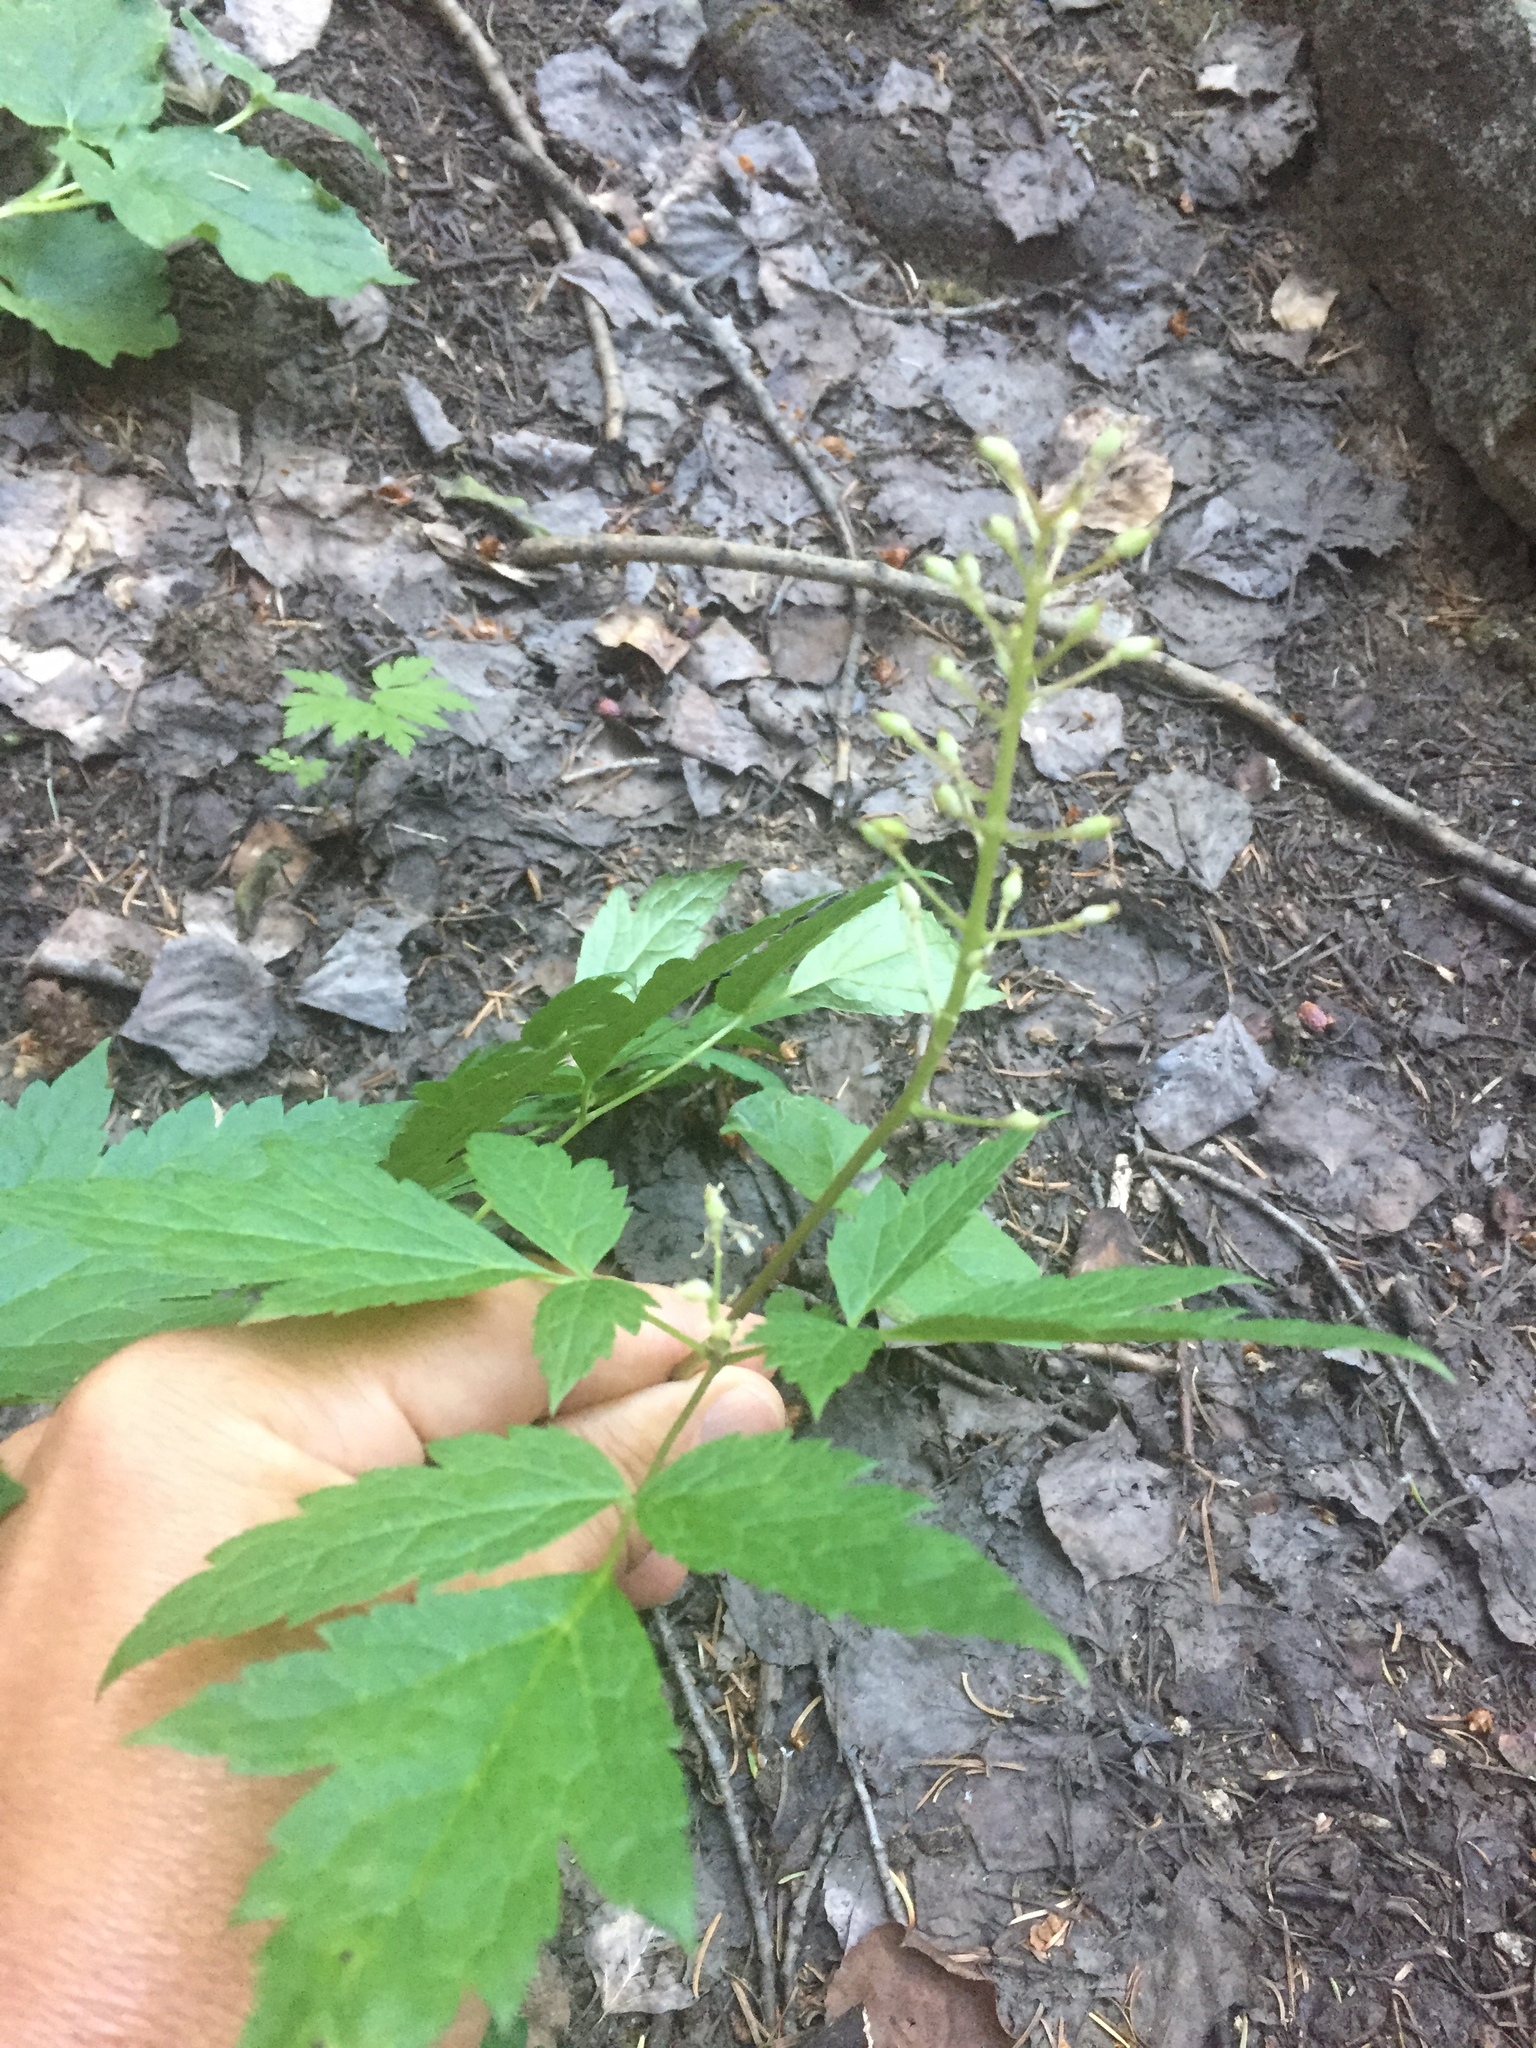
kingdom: Plantae
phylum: Tracheophyta
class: Magnoliopsida
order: Ranunculales
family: Ranunculaceae
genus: Actaea
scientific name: Actaea rubra
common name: Red baneberry
